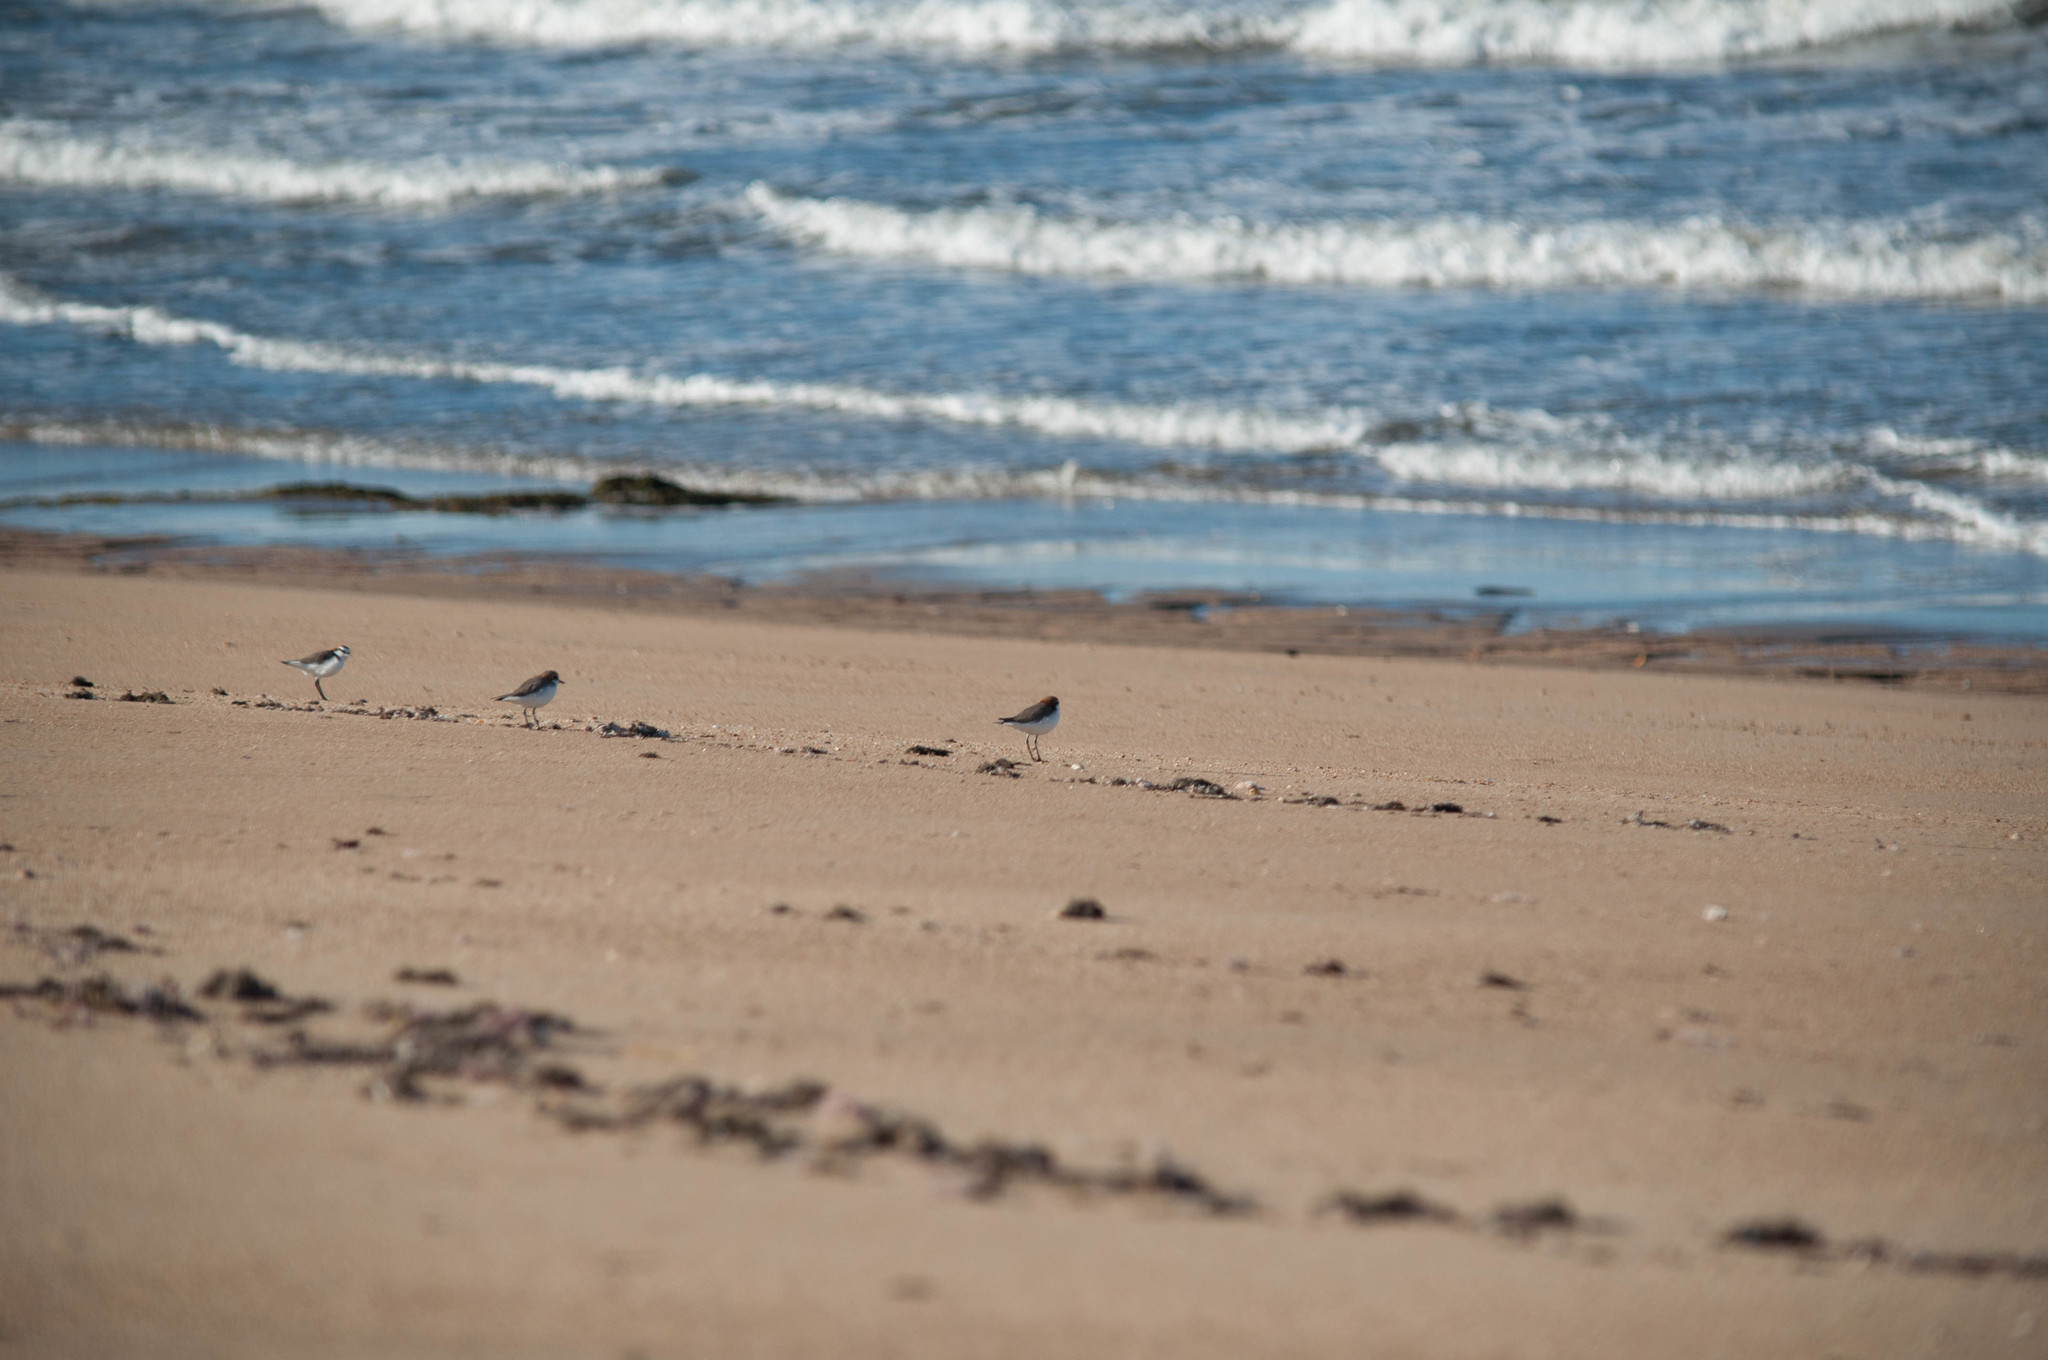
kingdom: Animalia
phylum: Chordata
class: Aves
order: Charadriiformes
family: Charadriidae
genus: Anarhynchus
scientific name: Anarhynchus
